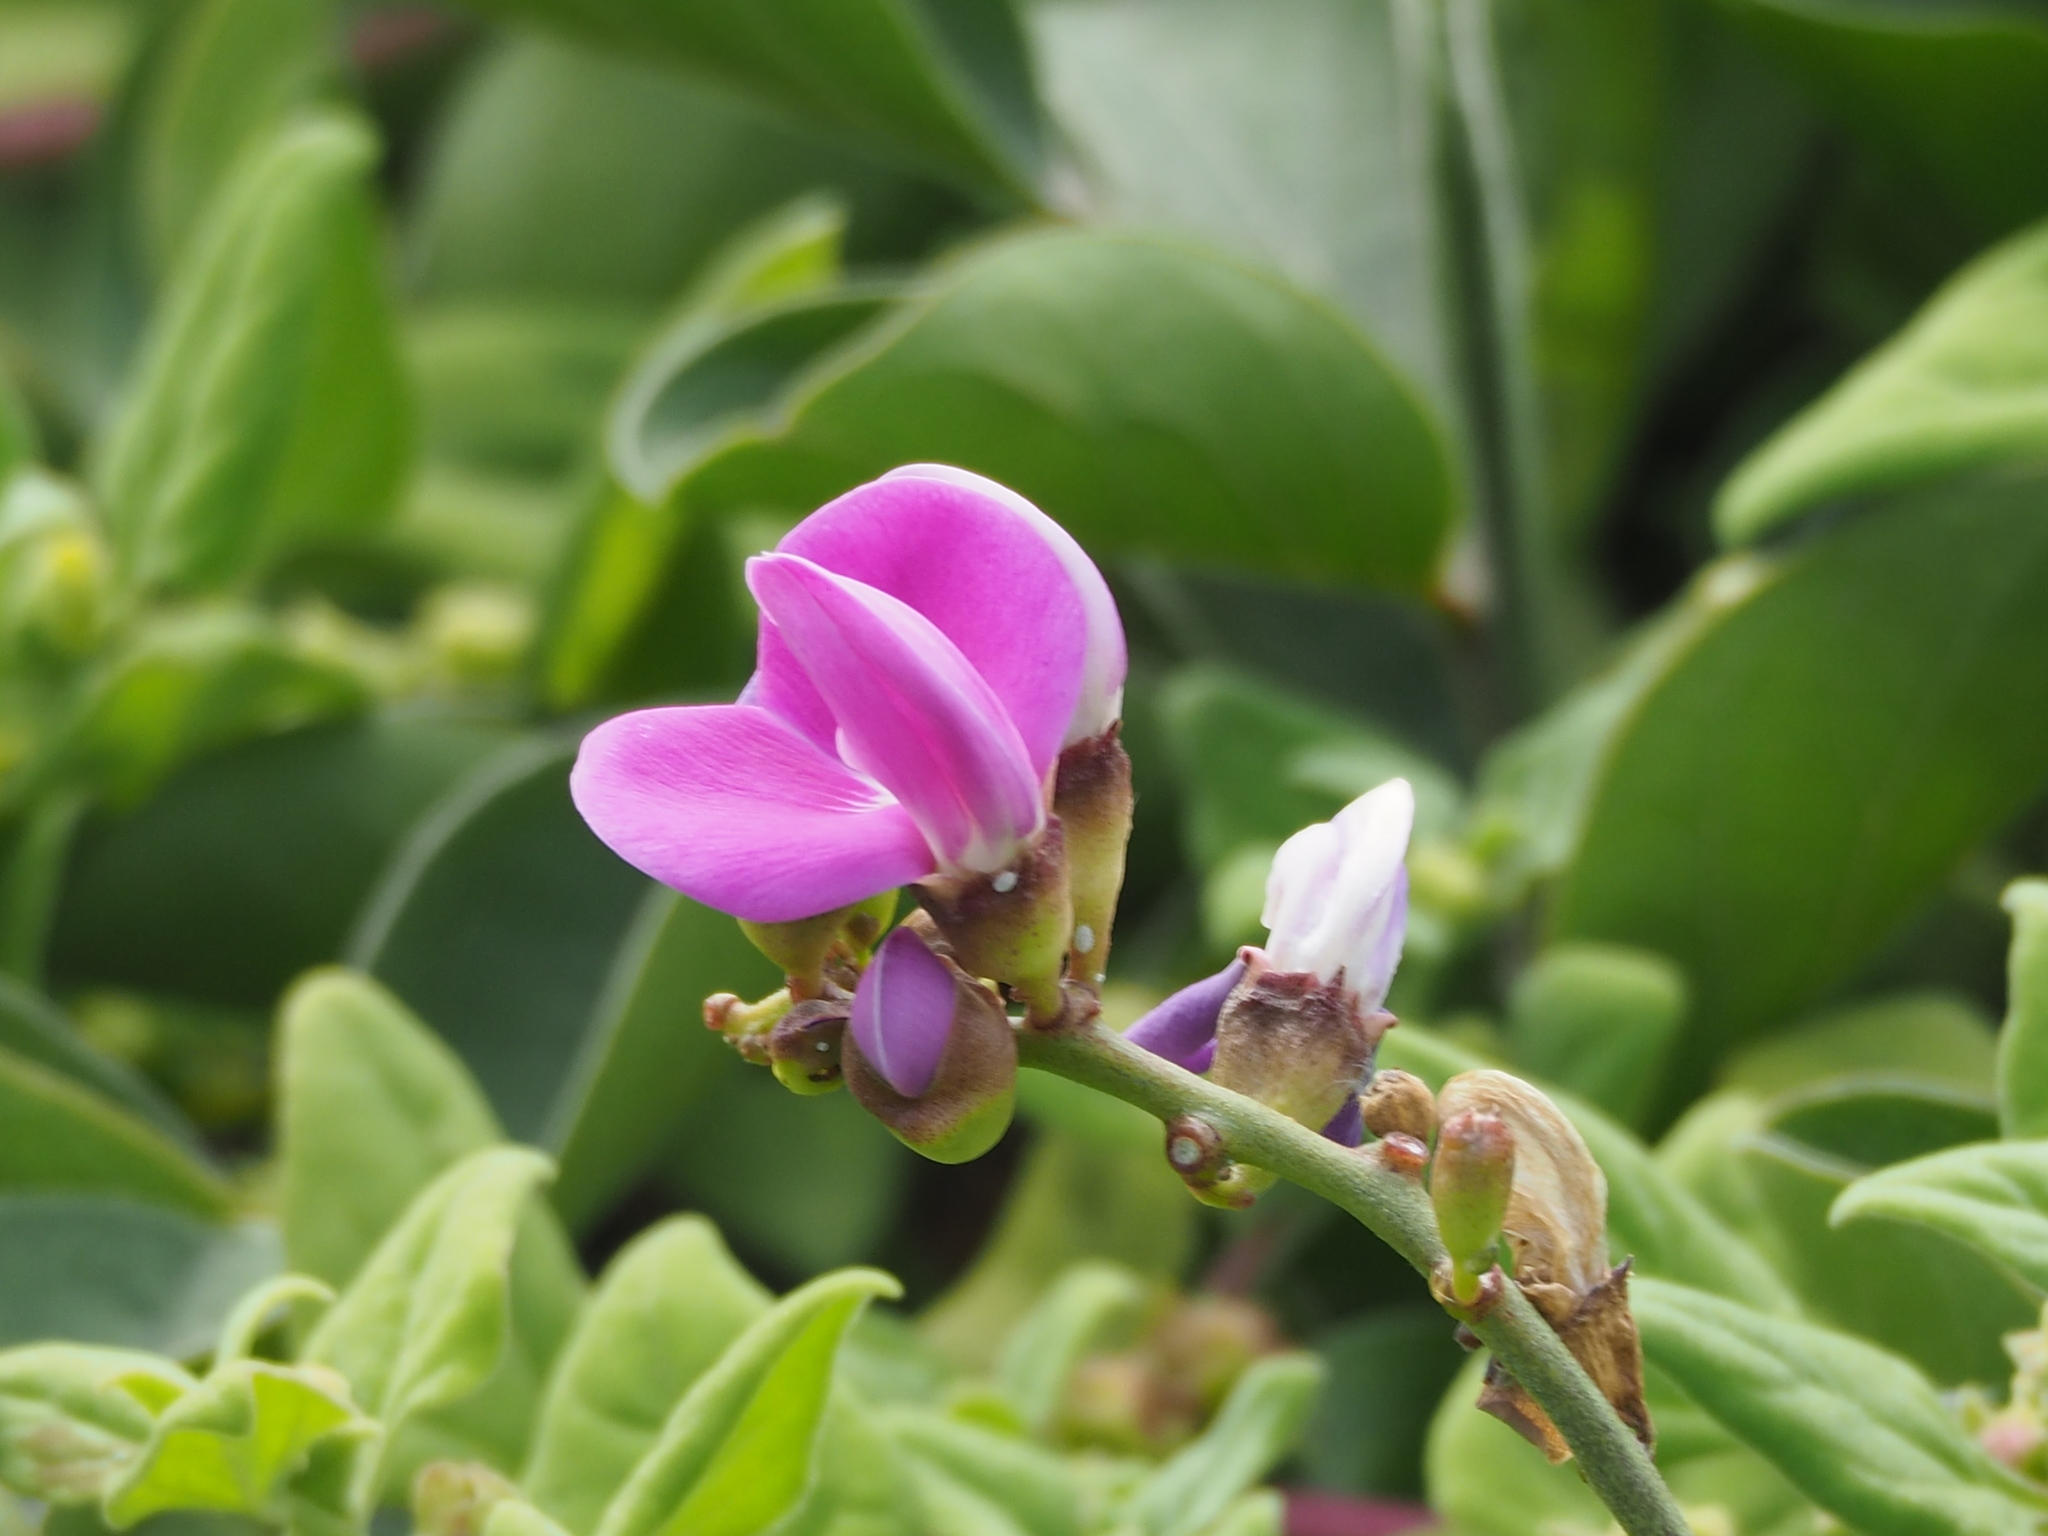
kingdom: Plantae
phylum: Tracheophyta
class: Magnoliopsida
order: Fabales
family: Fabaceae
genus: Canavalia
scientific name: Canavalia rosea
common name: Beach-bean
